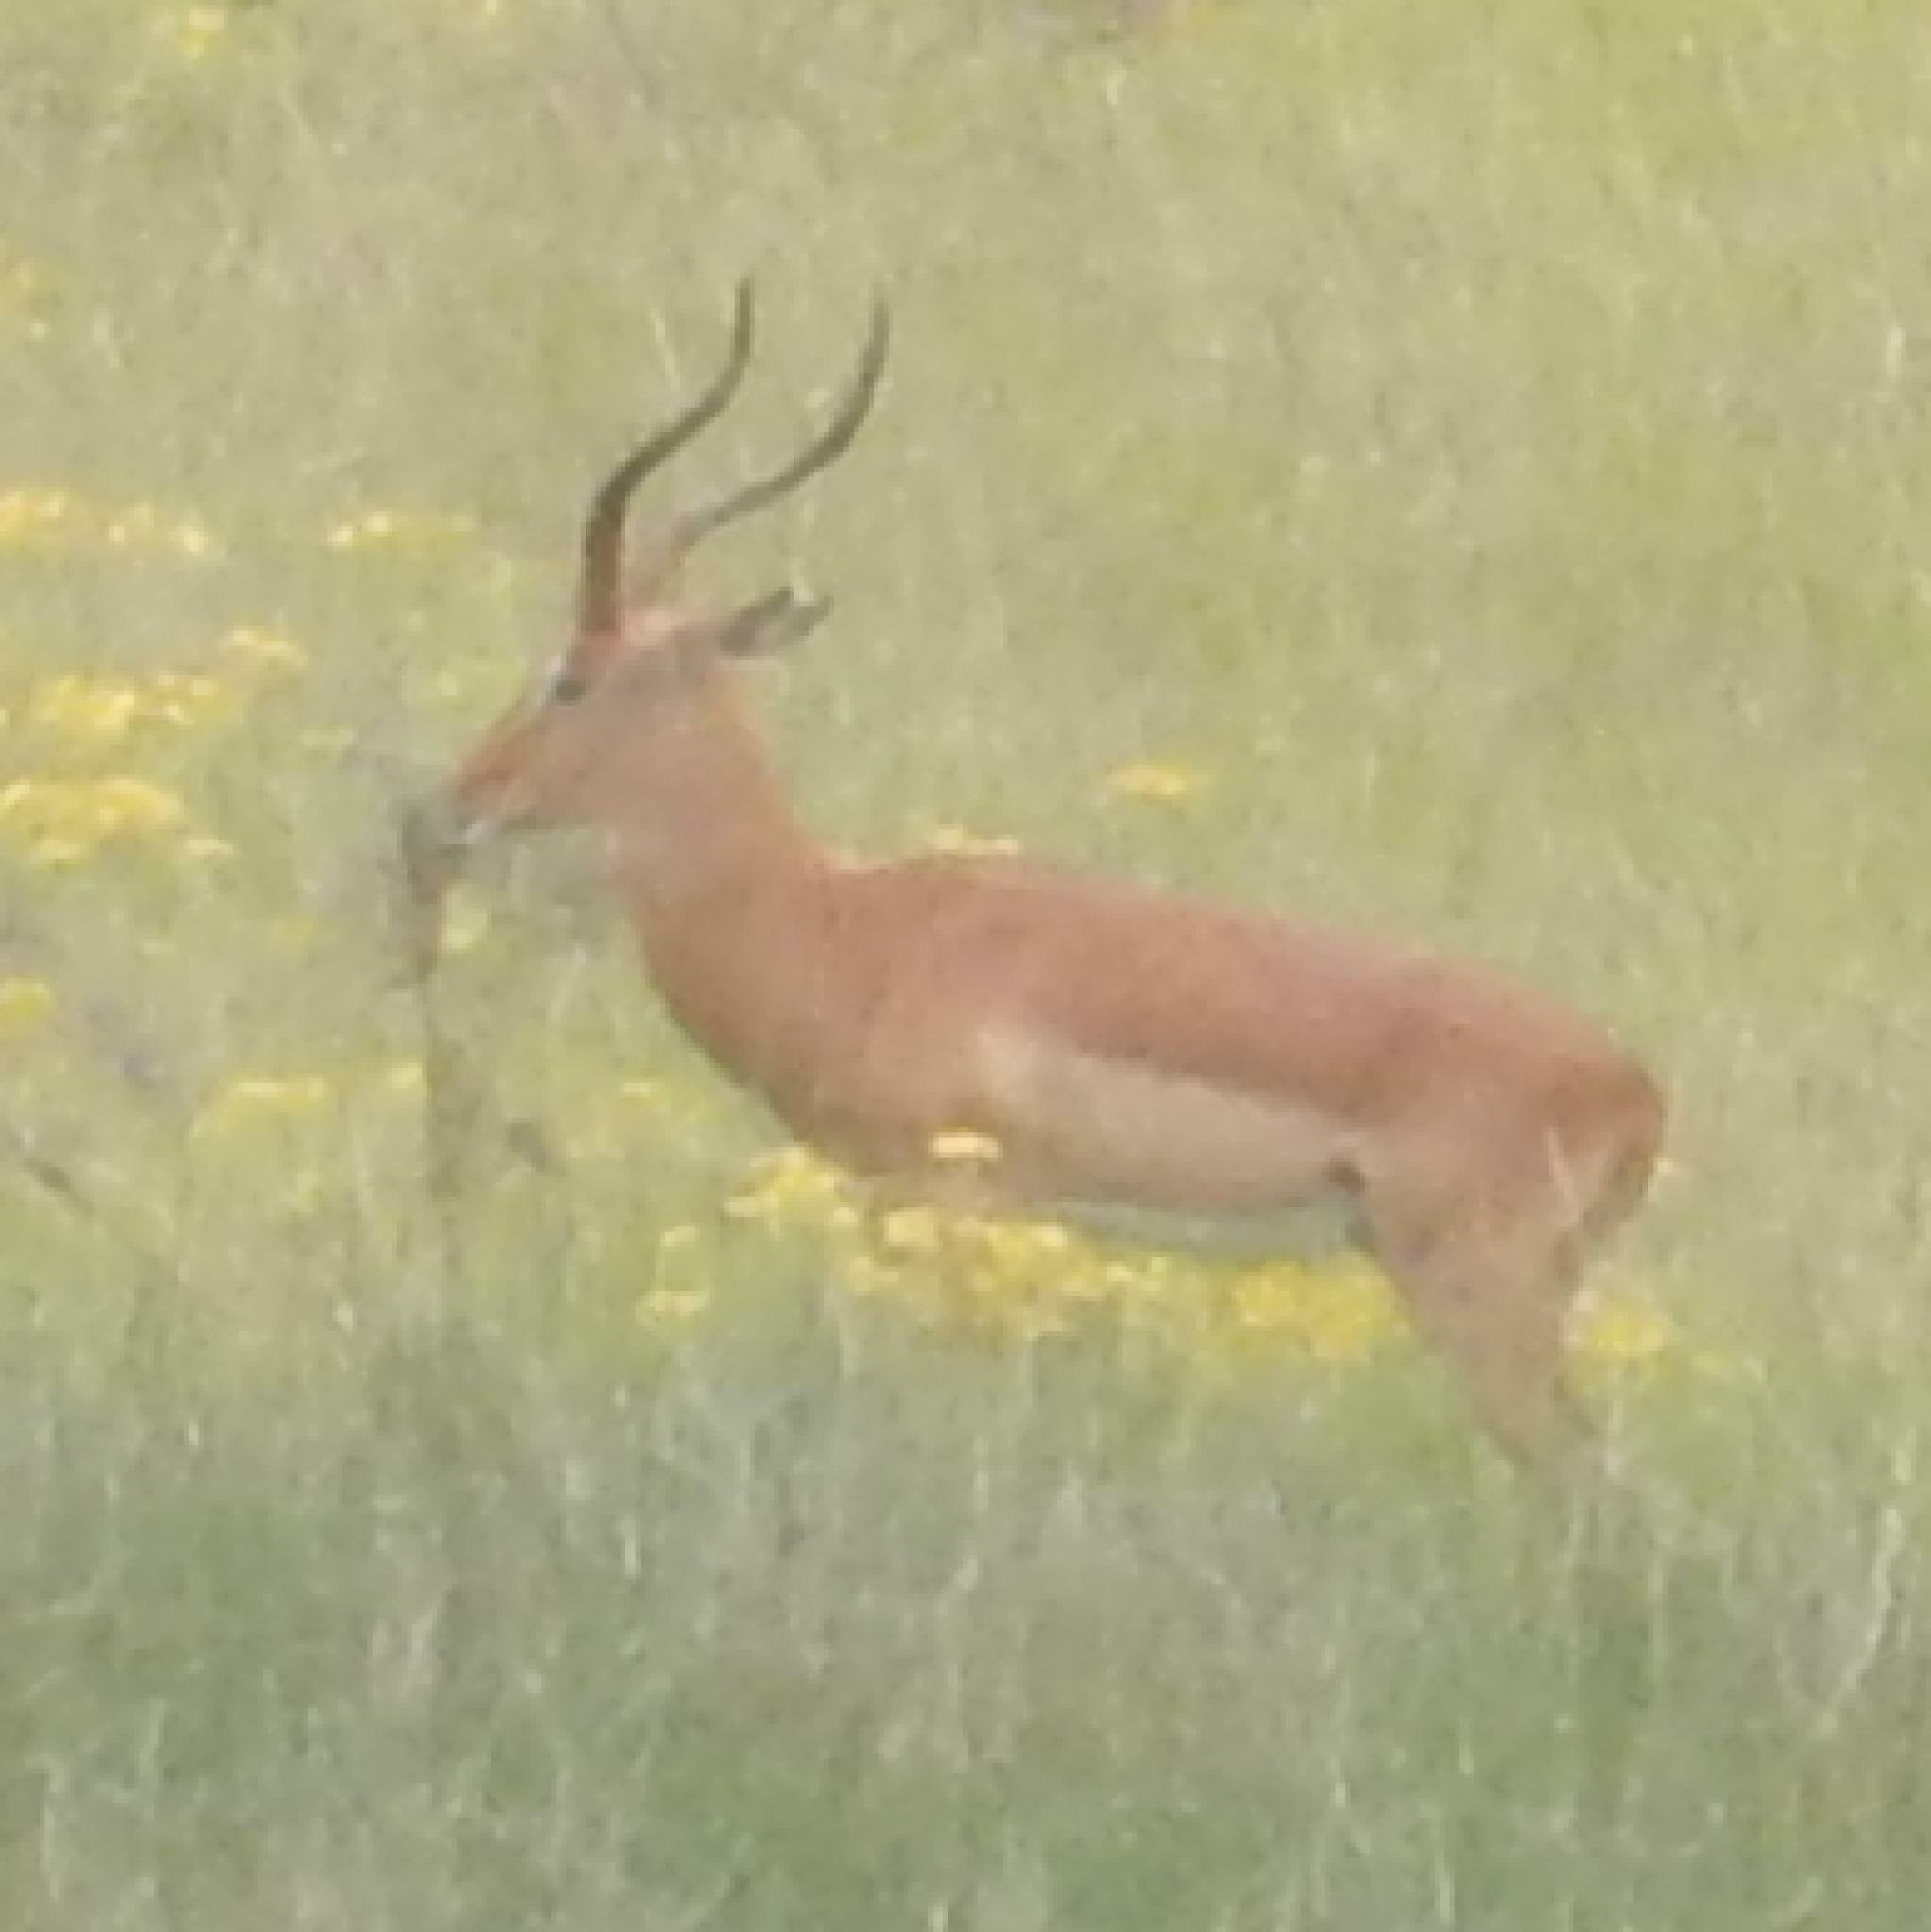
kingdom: Animalia
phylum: Chordata
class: Mammalia
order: Artiodactyla
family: Bovidae
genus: Aepyceros
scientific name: Aepyceros melampus
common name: Impala
